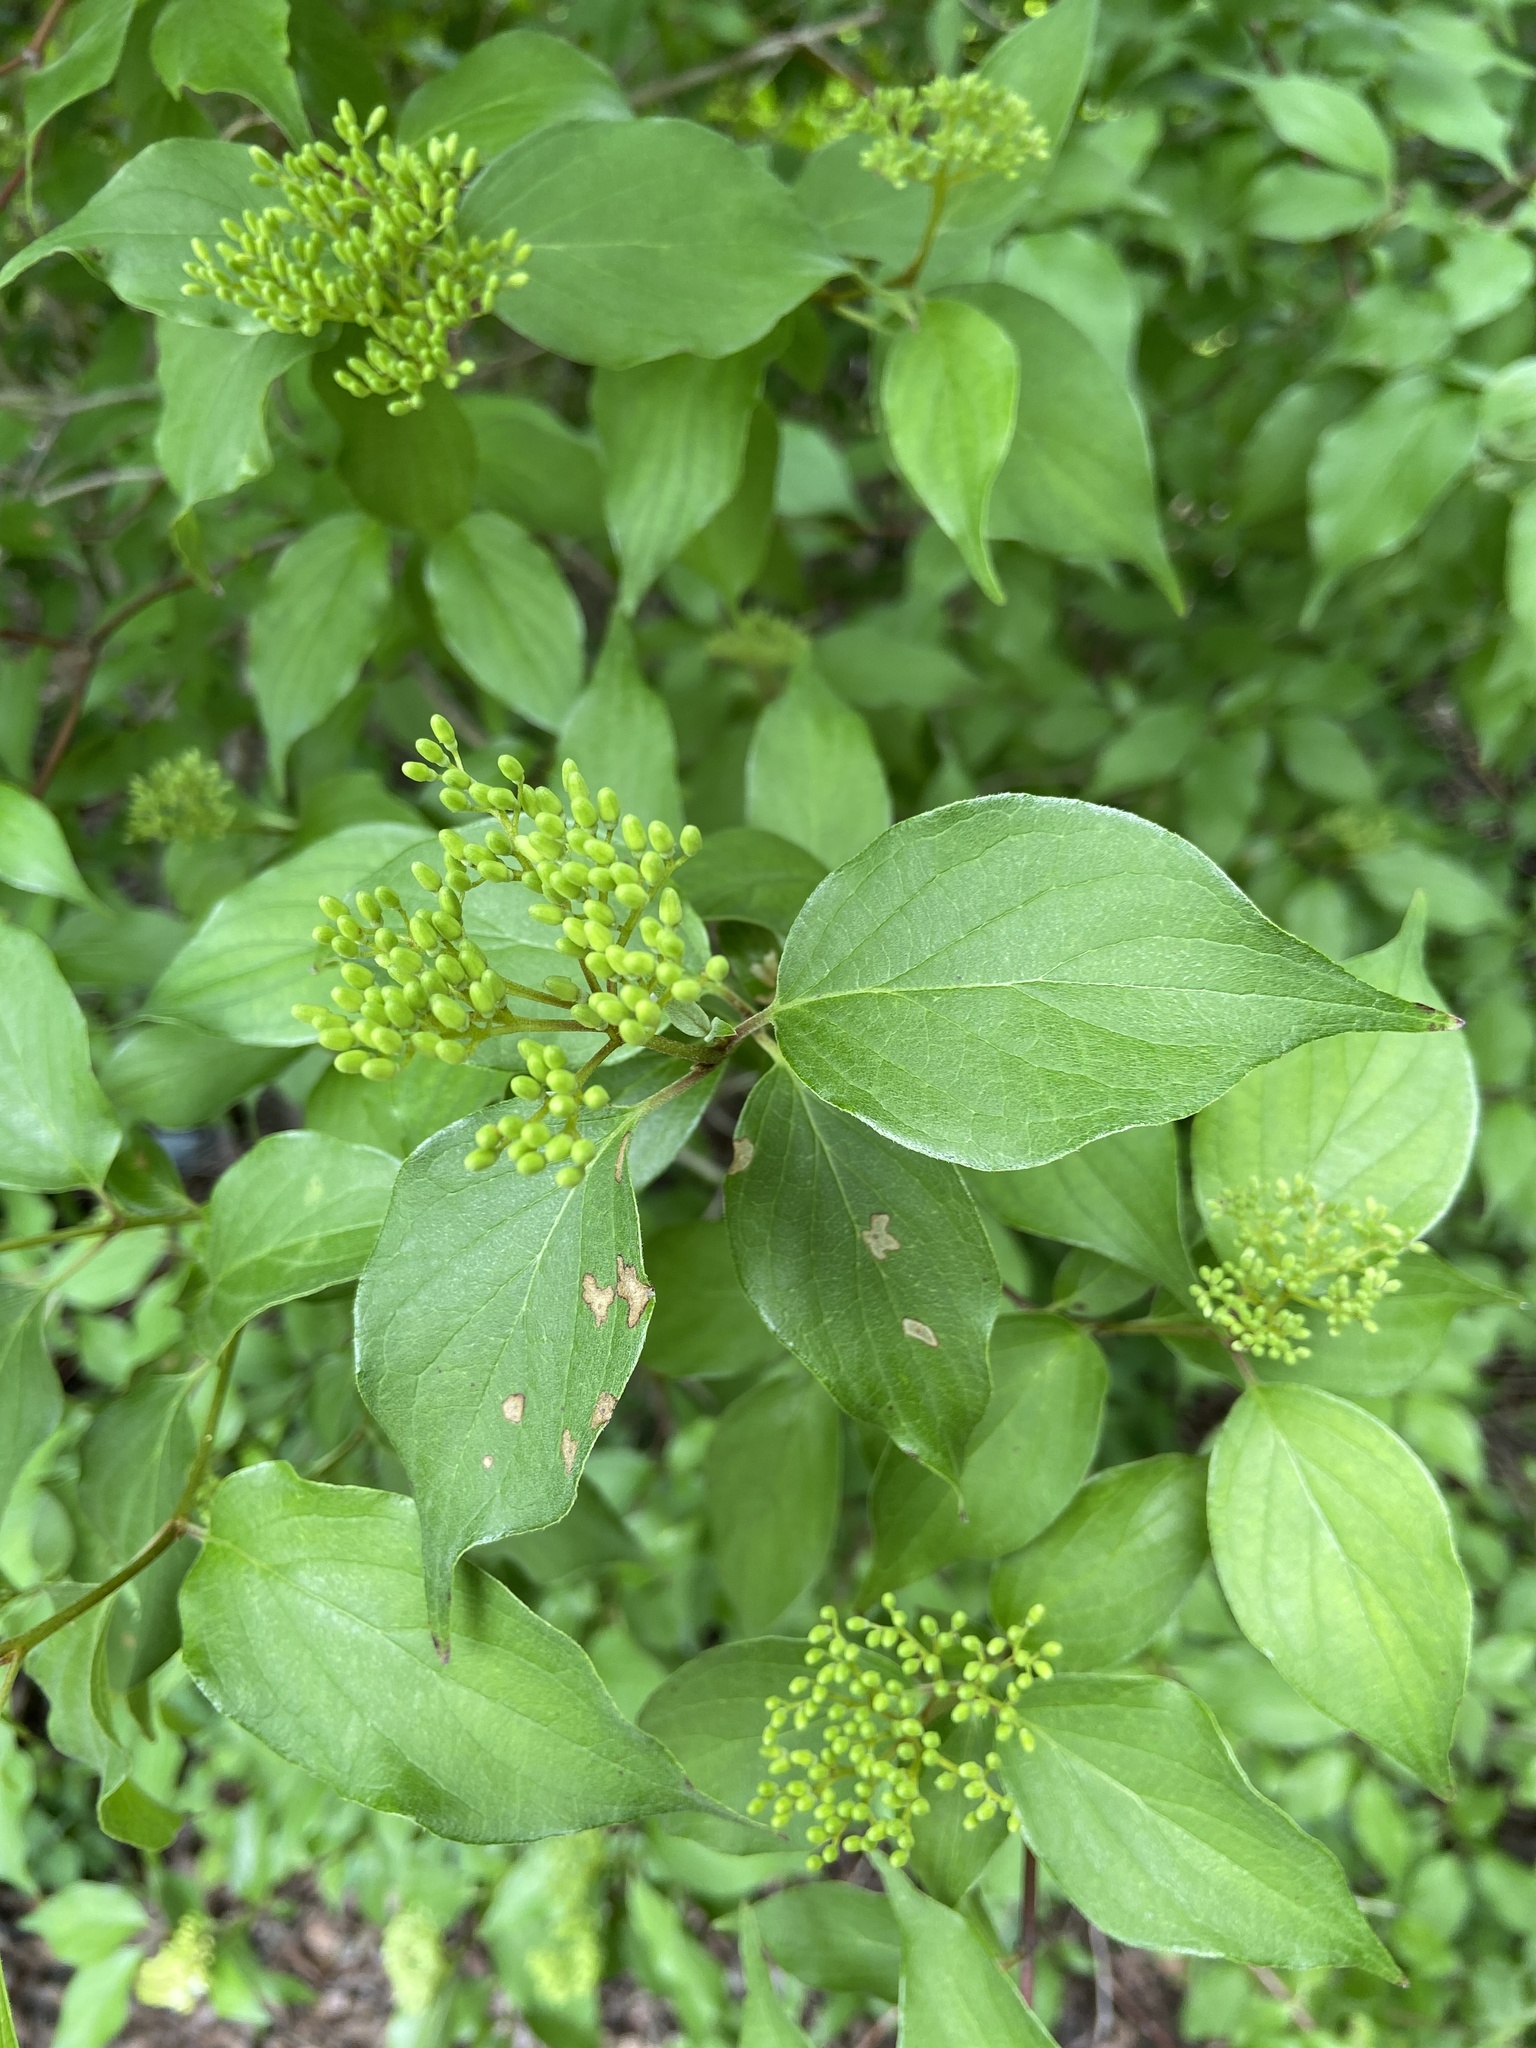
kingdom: Plantae
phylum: Tracheophyta
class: Magnoliopsida
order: Cornales
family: Cornaceae
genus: Cornus
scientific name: Cornus drummondii
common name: Rough-leaf dogwood
